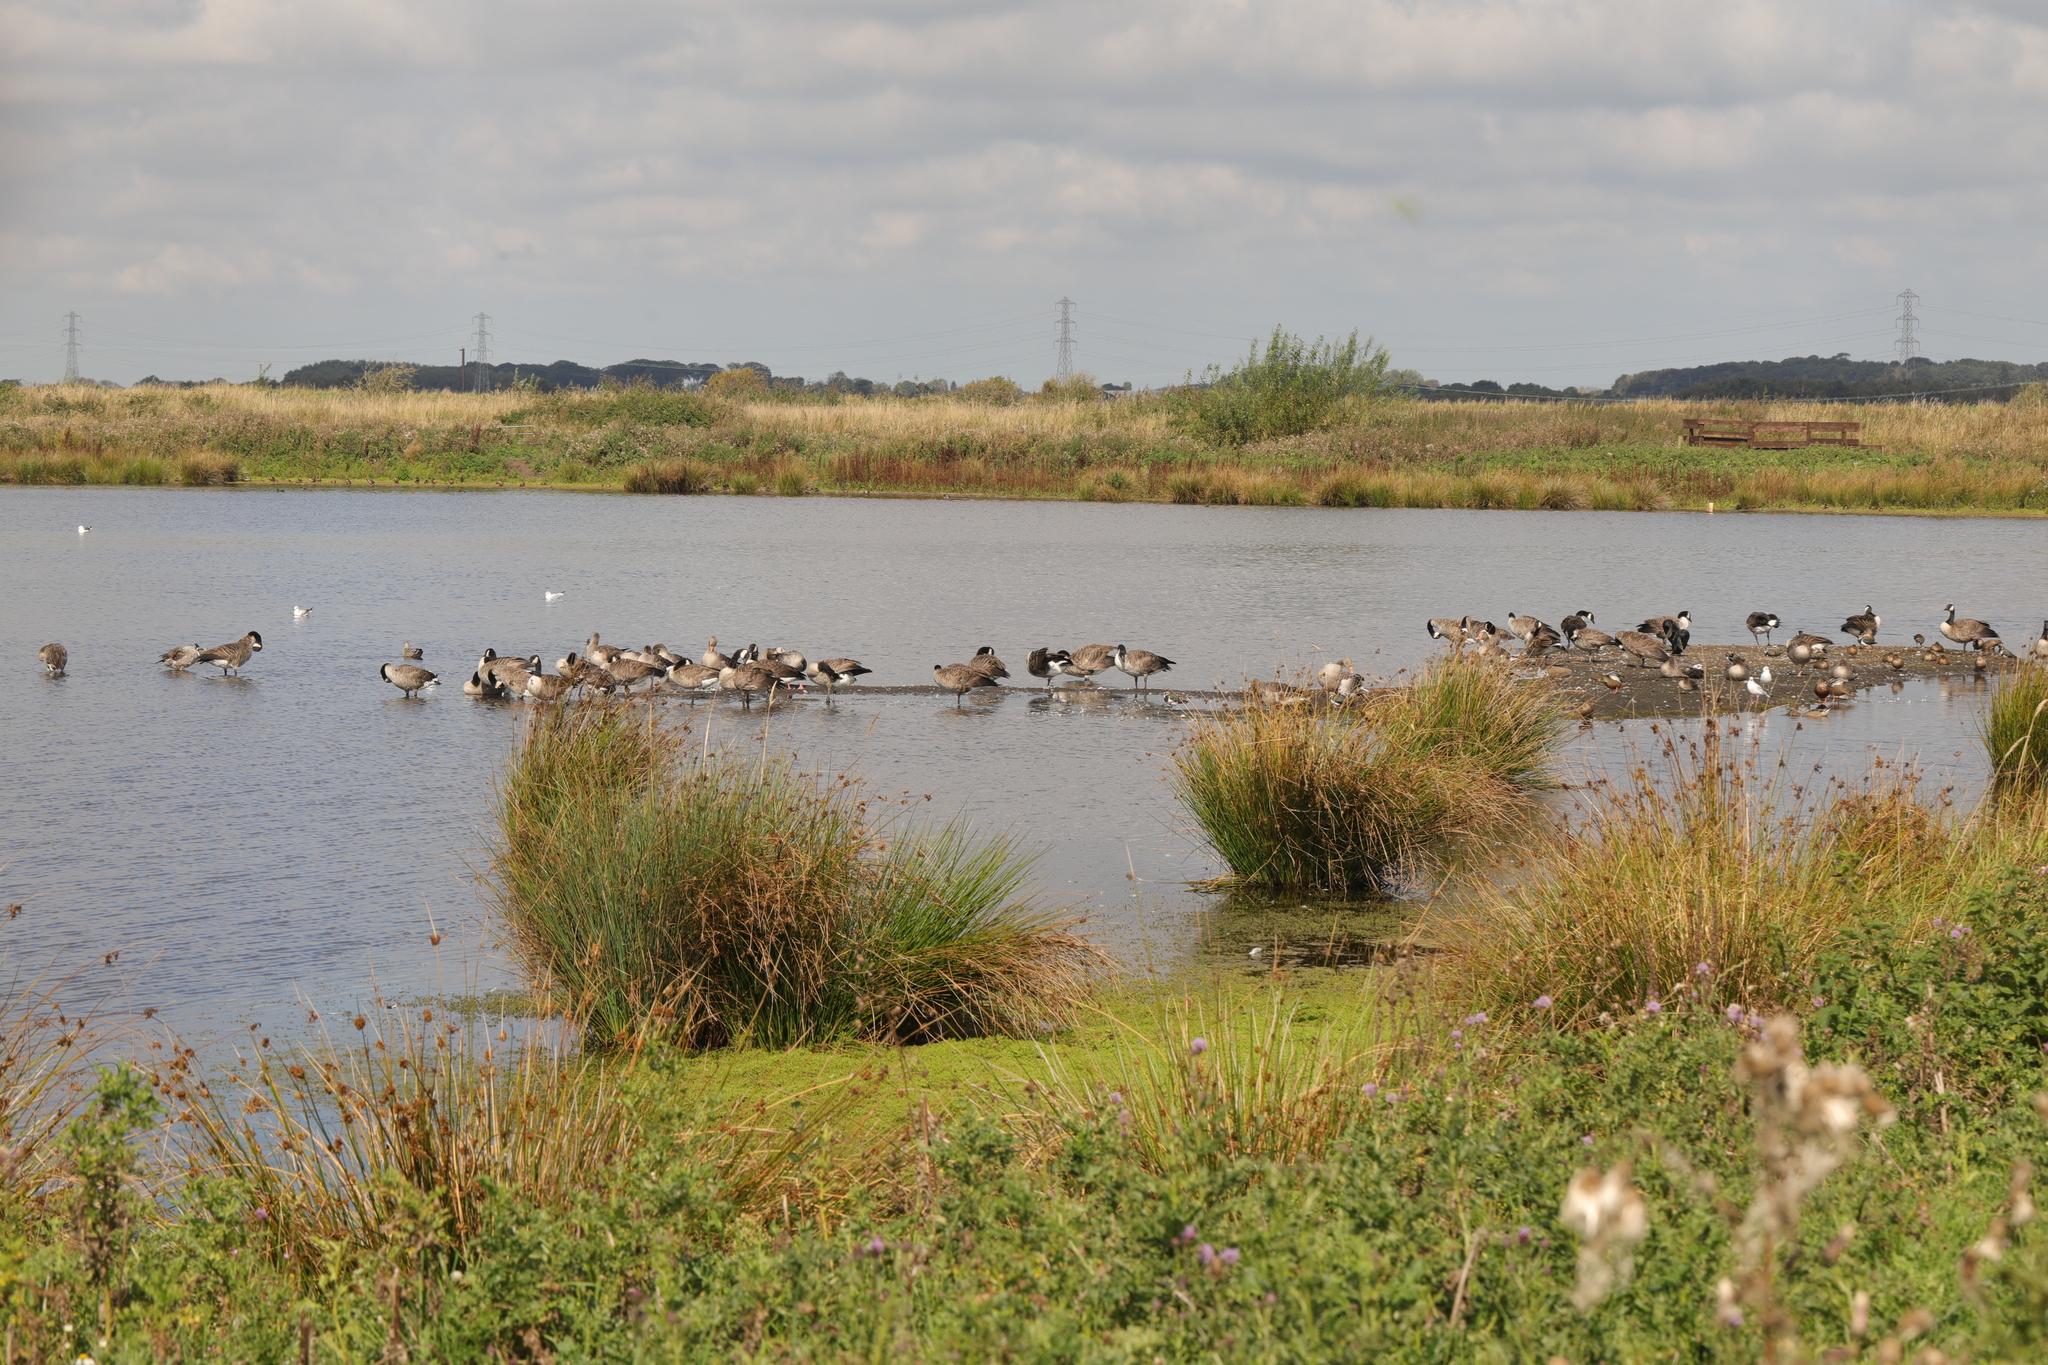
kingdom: Animalia
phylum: Chordata
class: Aves
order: Anseriformes
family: Anatidae
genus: Branta
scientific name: Branta canadensis
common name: Canada goose
